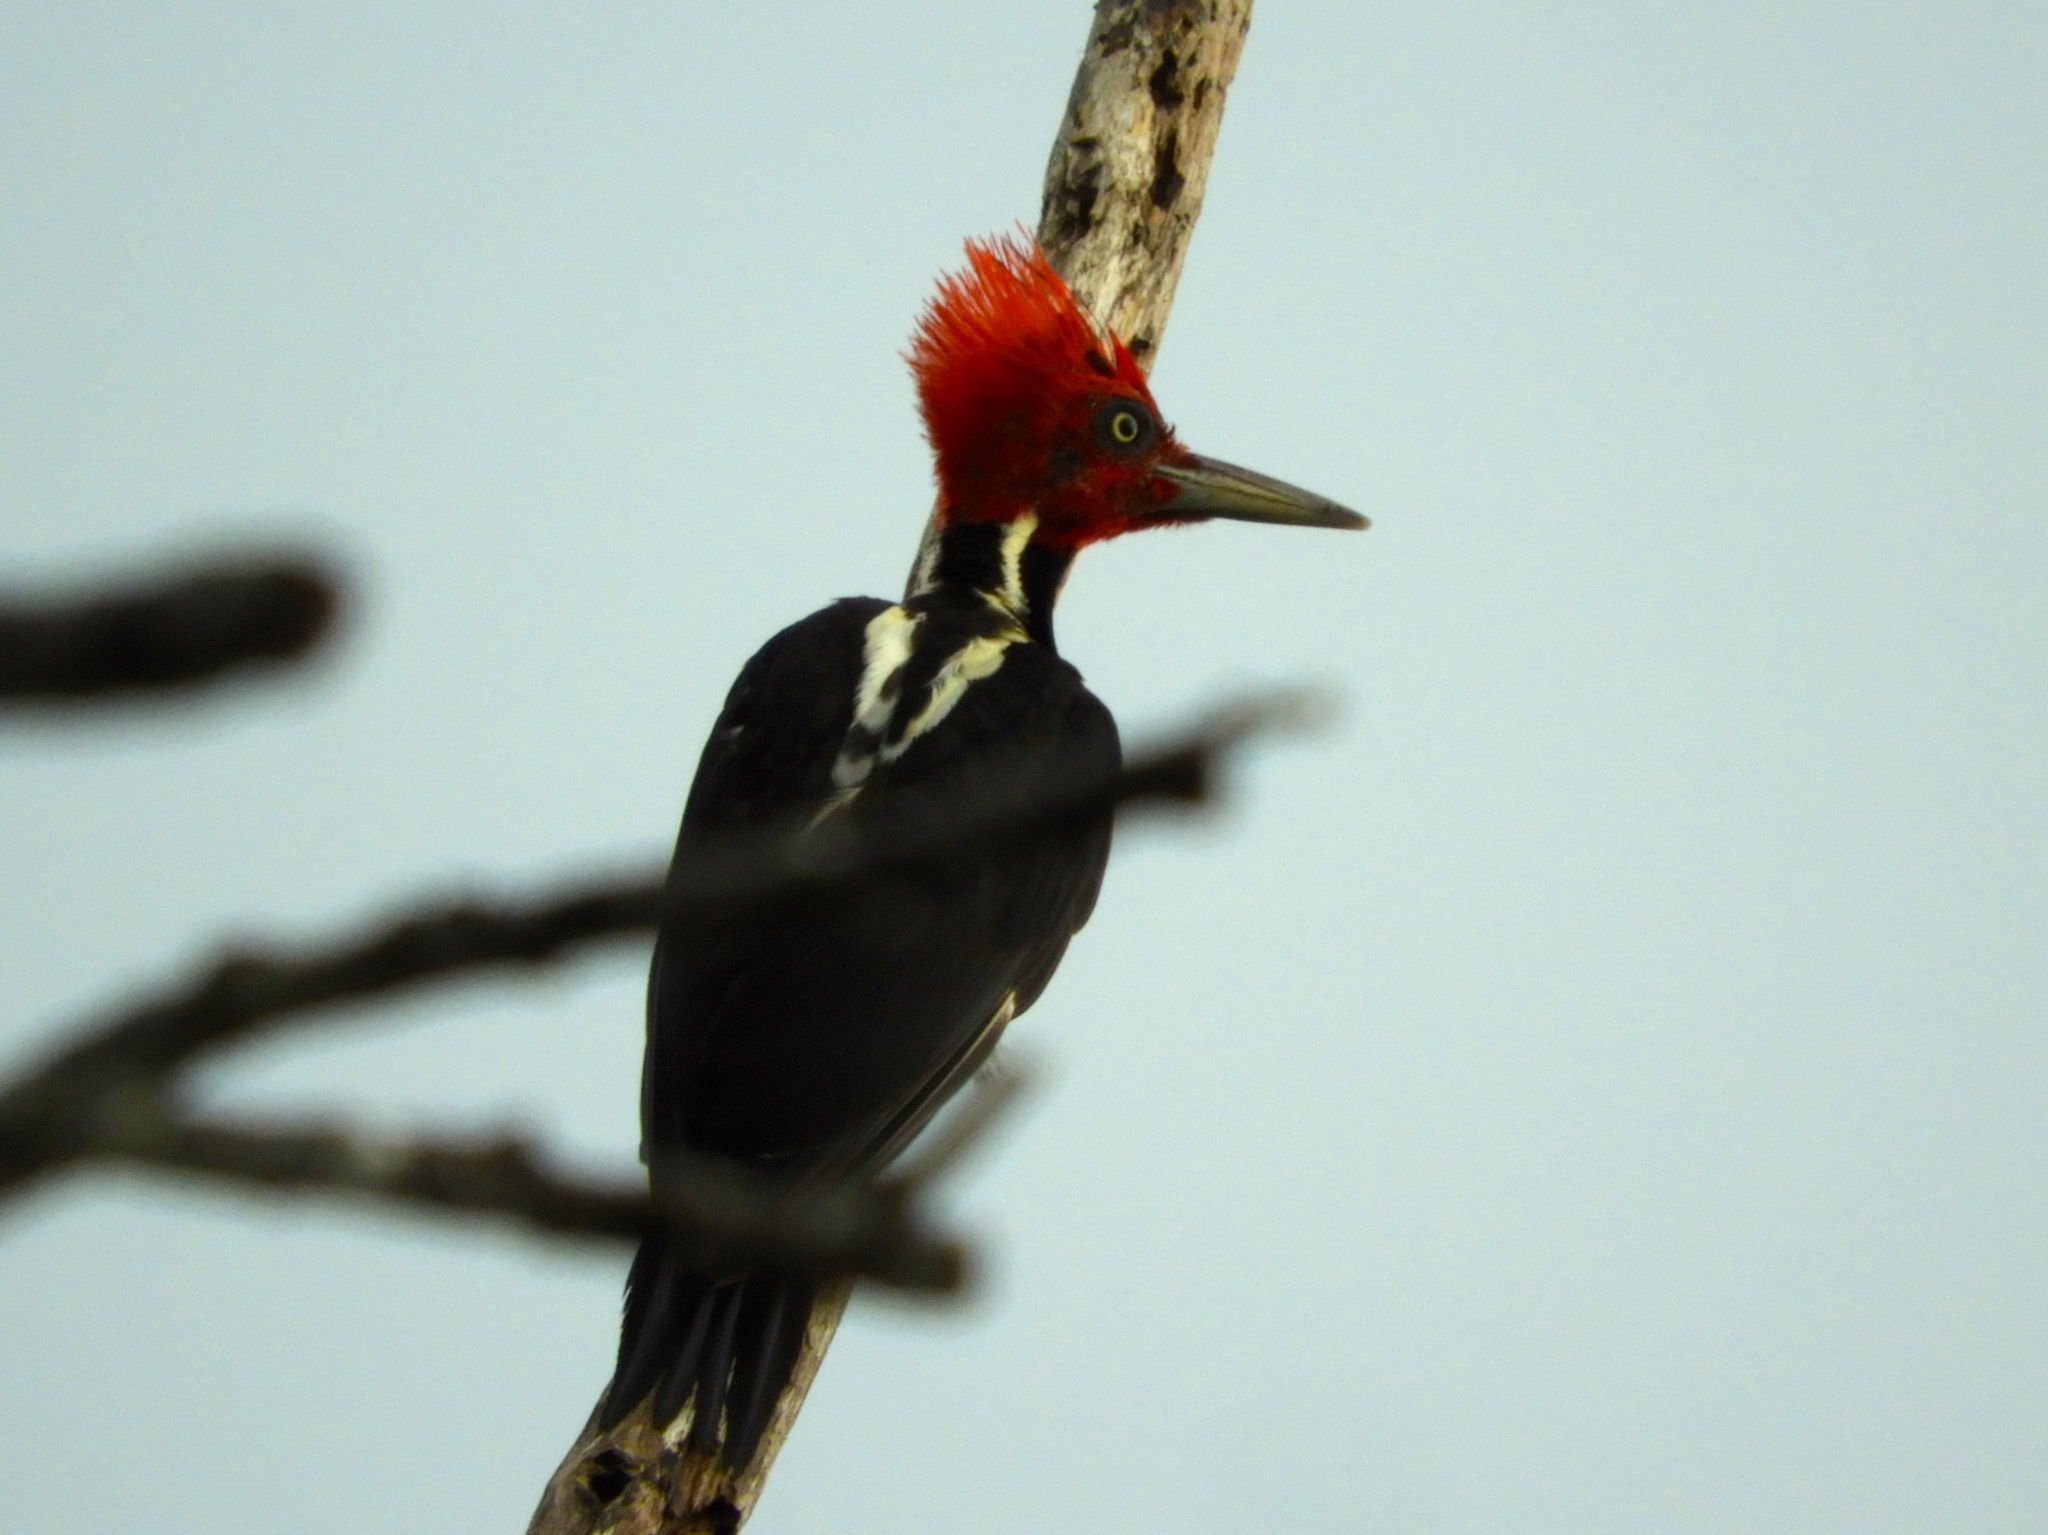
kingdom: Animalia
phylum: Chordata
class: Aves
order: Piciformes
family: Picidae
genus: Campephilus
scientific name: Campephilus guatemalensis
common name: Pale-billed woodpecker
